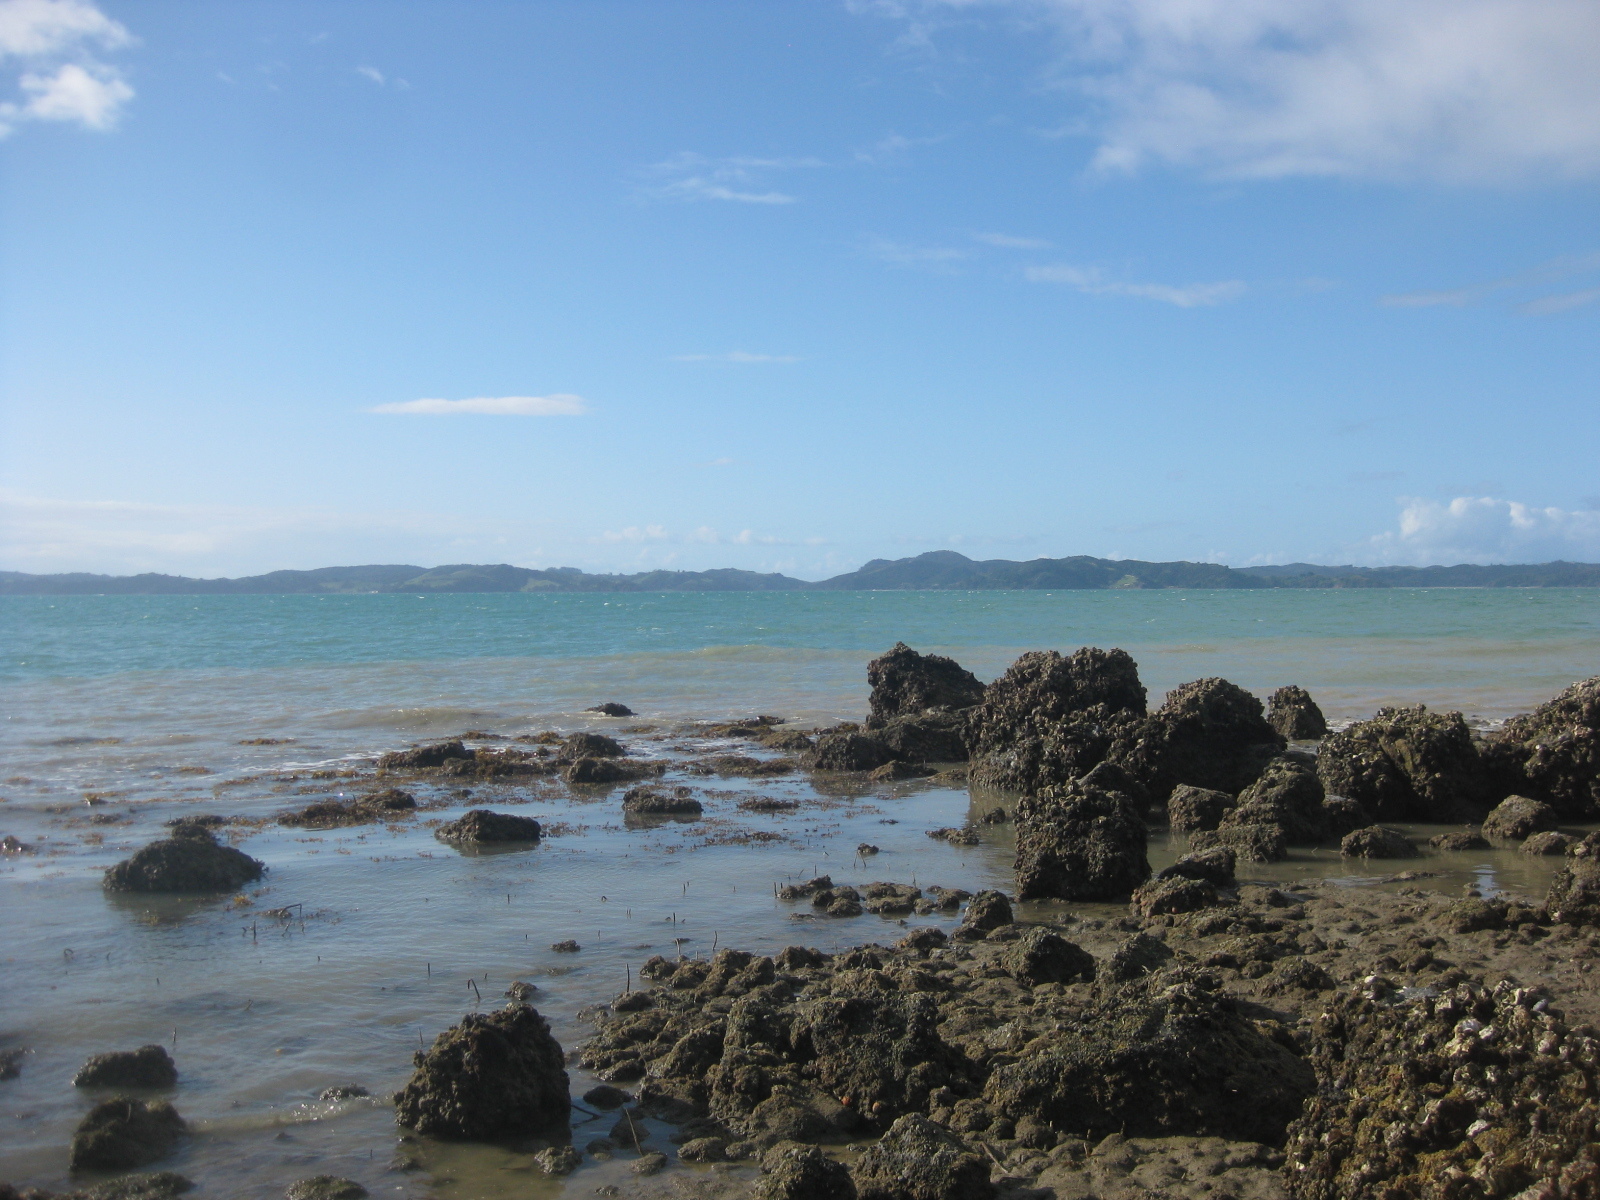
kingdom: Animalia
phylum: Echinodermata
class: Asteroidea
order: Forcipulatida
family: Asteriidae
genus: Coscinasterias
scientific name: Coscinasterias muricata
